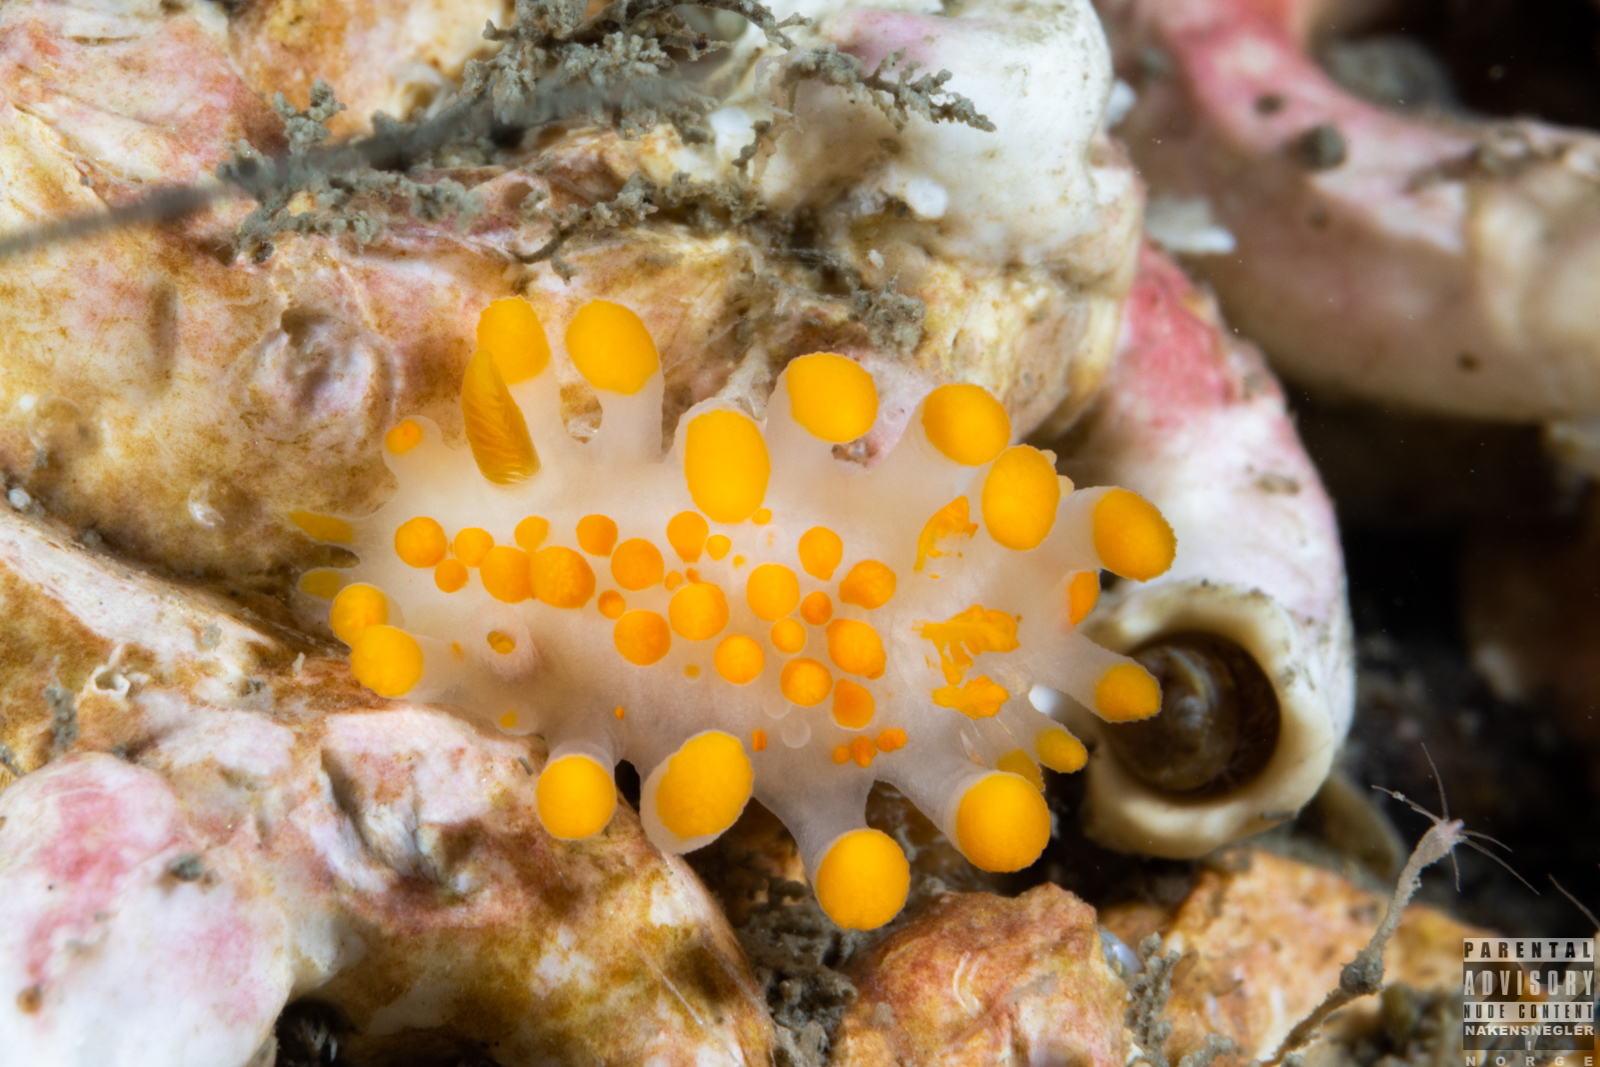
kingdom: Animalia
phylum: Mollusca
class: Gastropoda
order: Nudibranchia
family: Polyceridae
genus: Limacia
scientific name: Limacia clavigera
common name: Orange-clubbed sea slug
